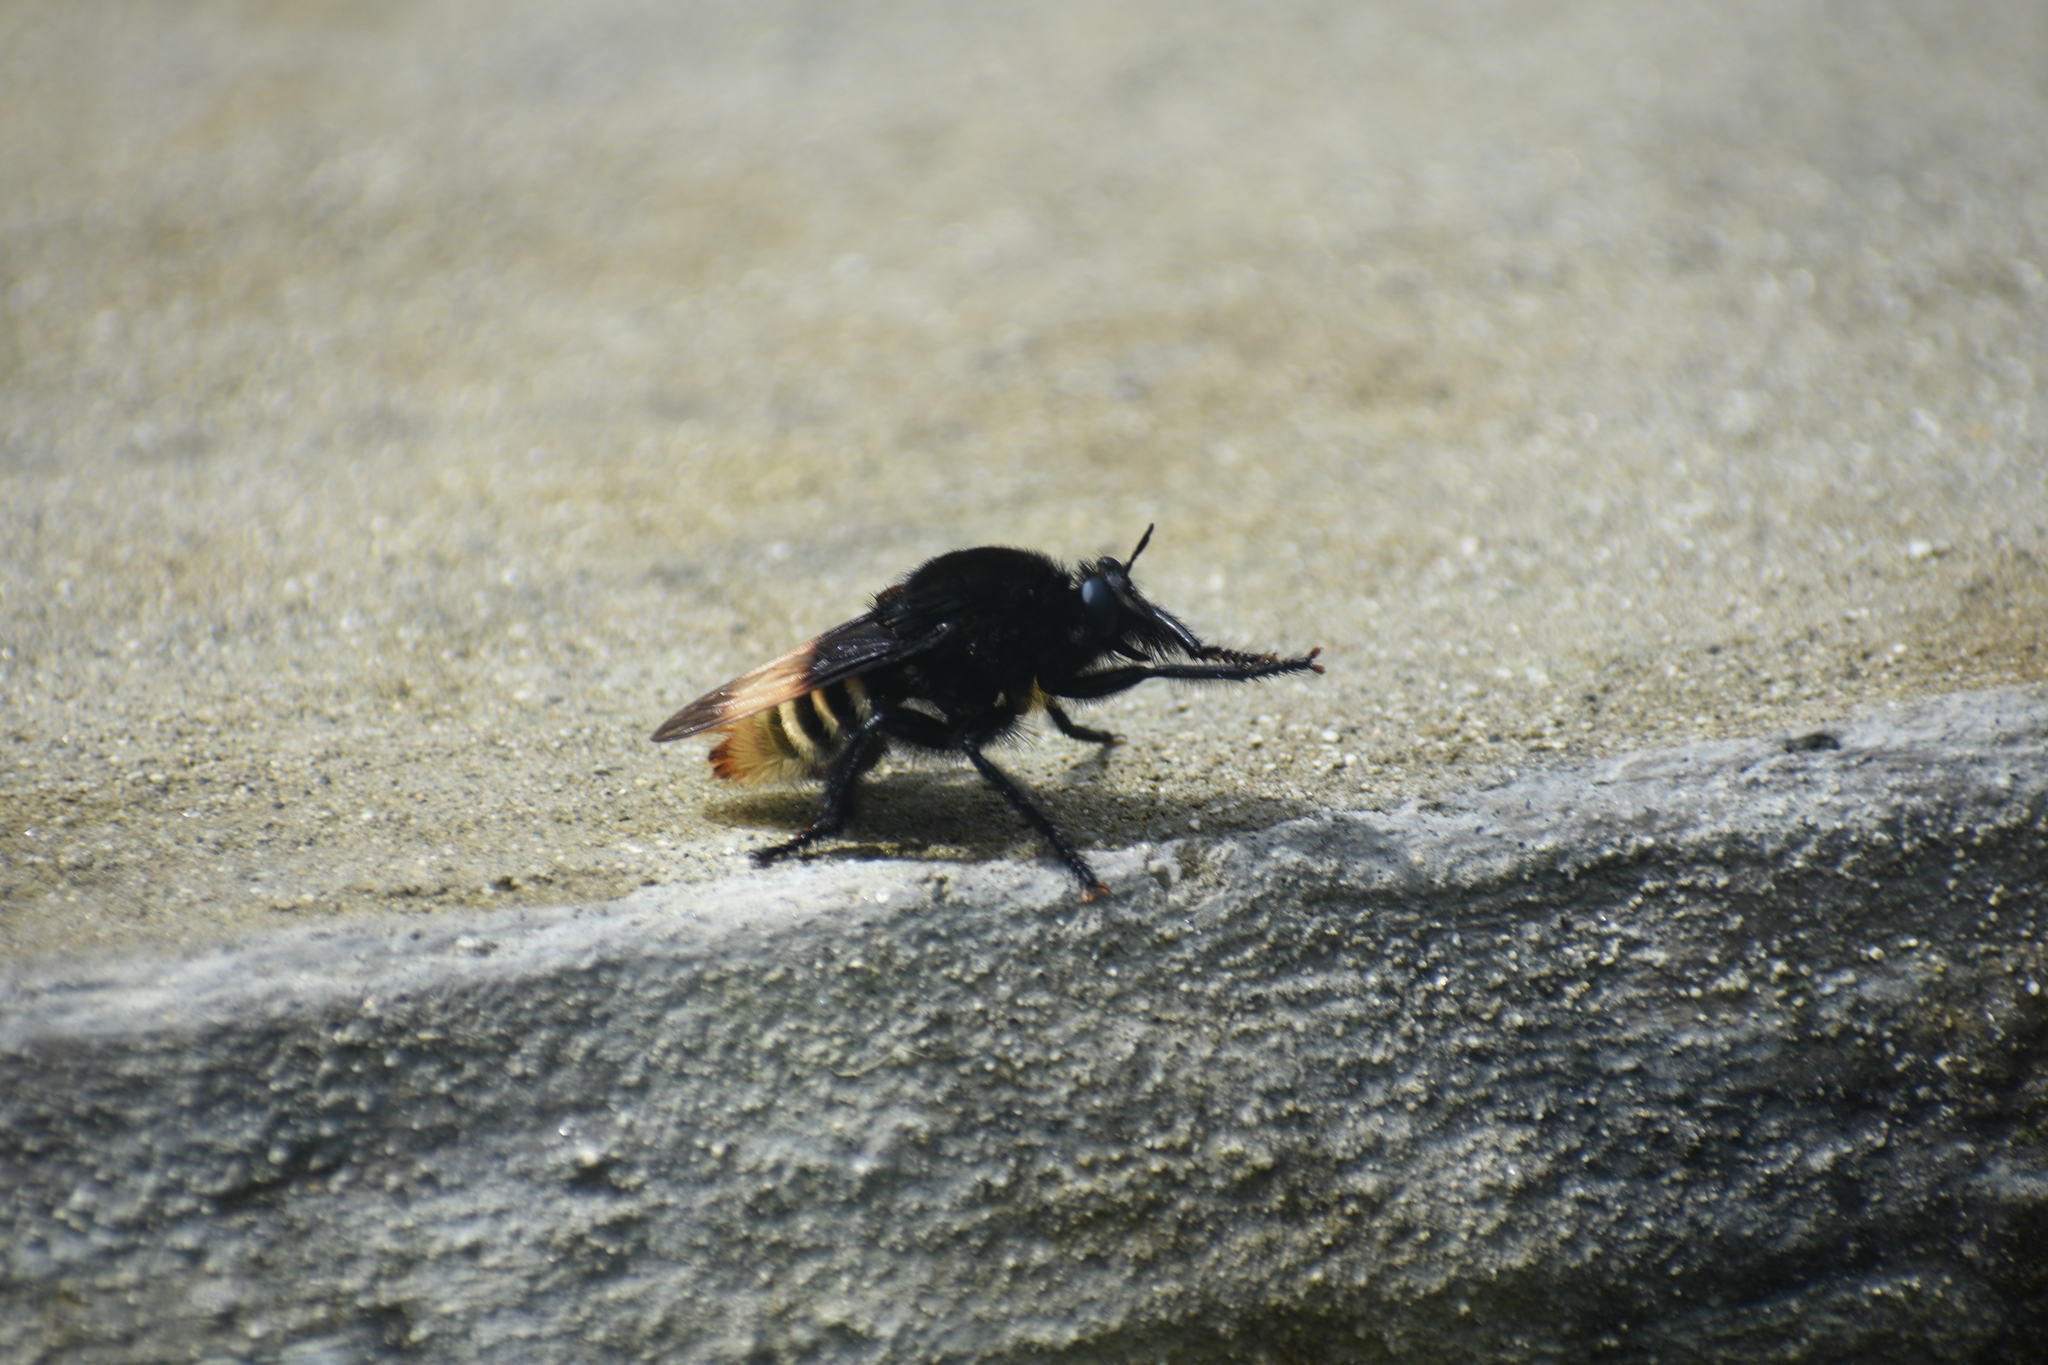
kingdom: Animalia
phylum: Arthropoda
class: Insecta
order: Diptera
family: Asilidae
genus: Dasyllis
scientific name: Dasyllis haemorrhoa
